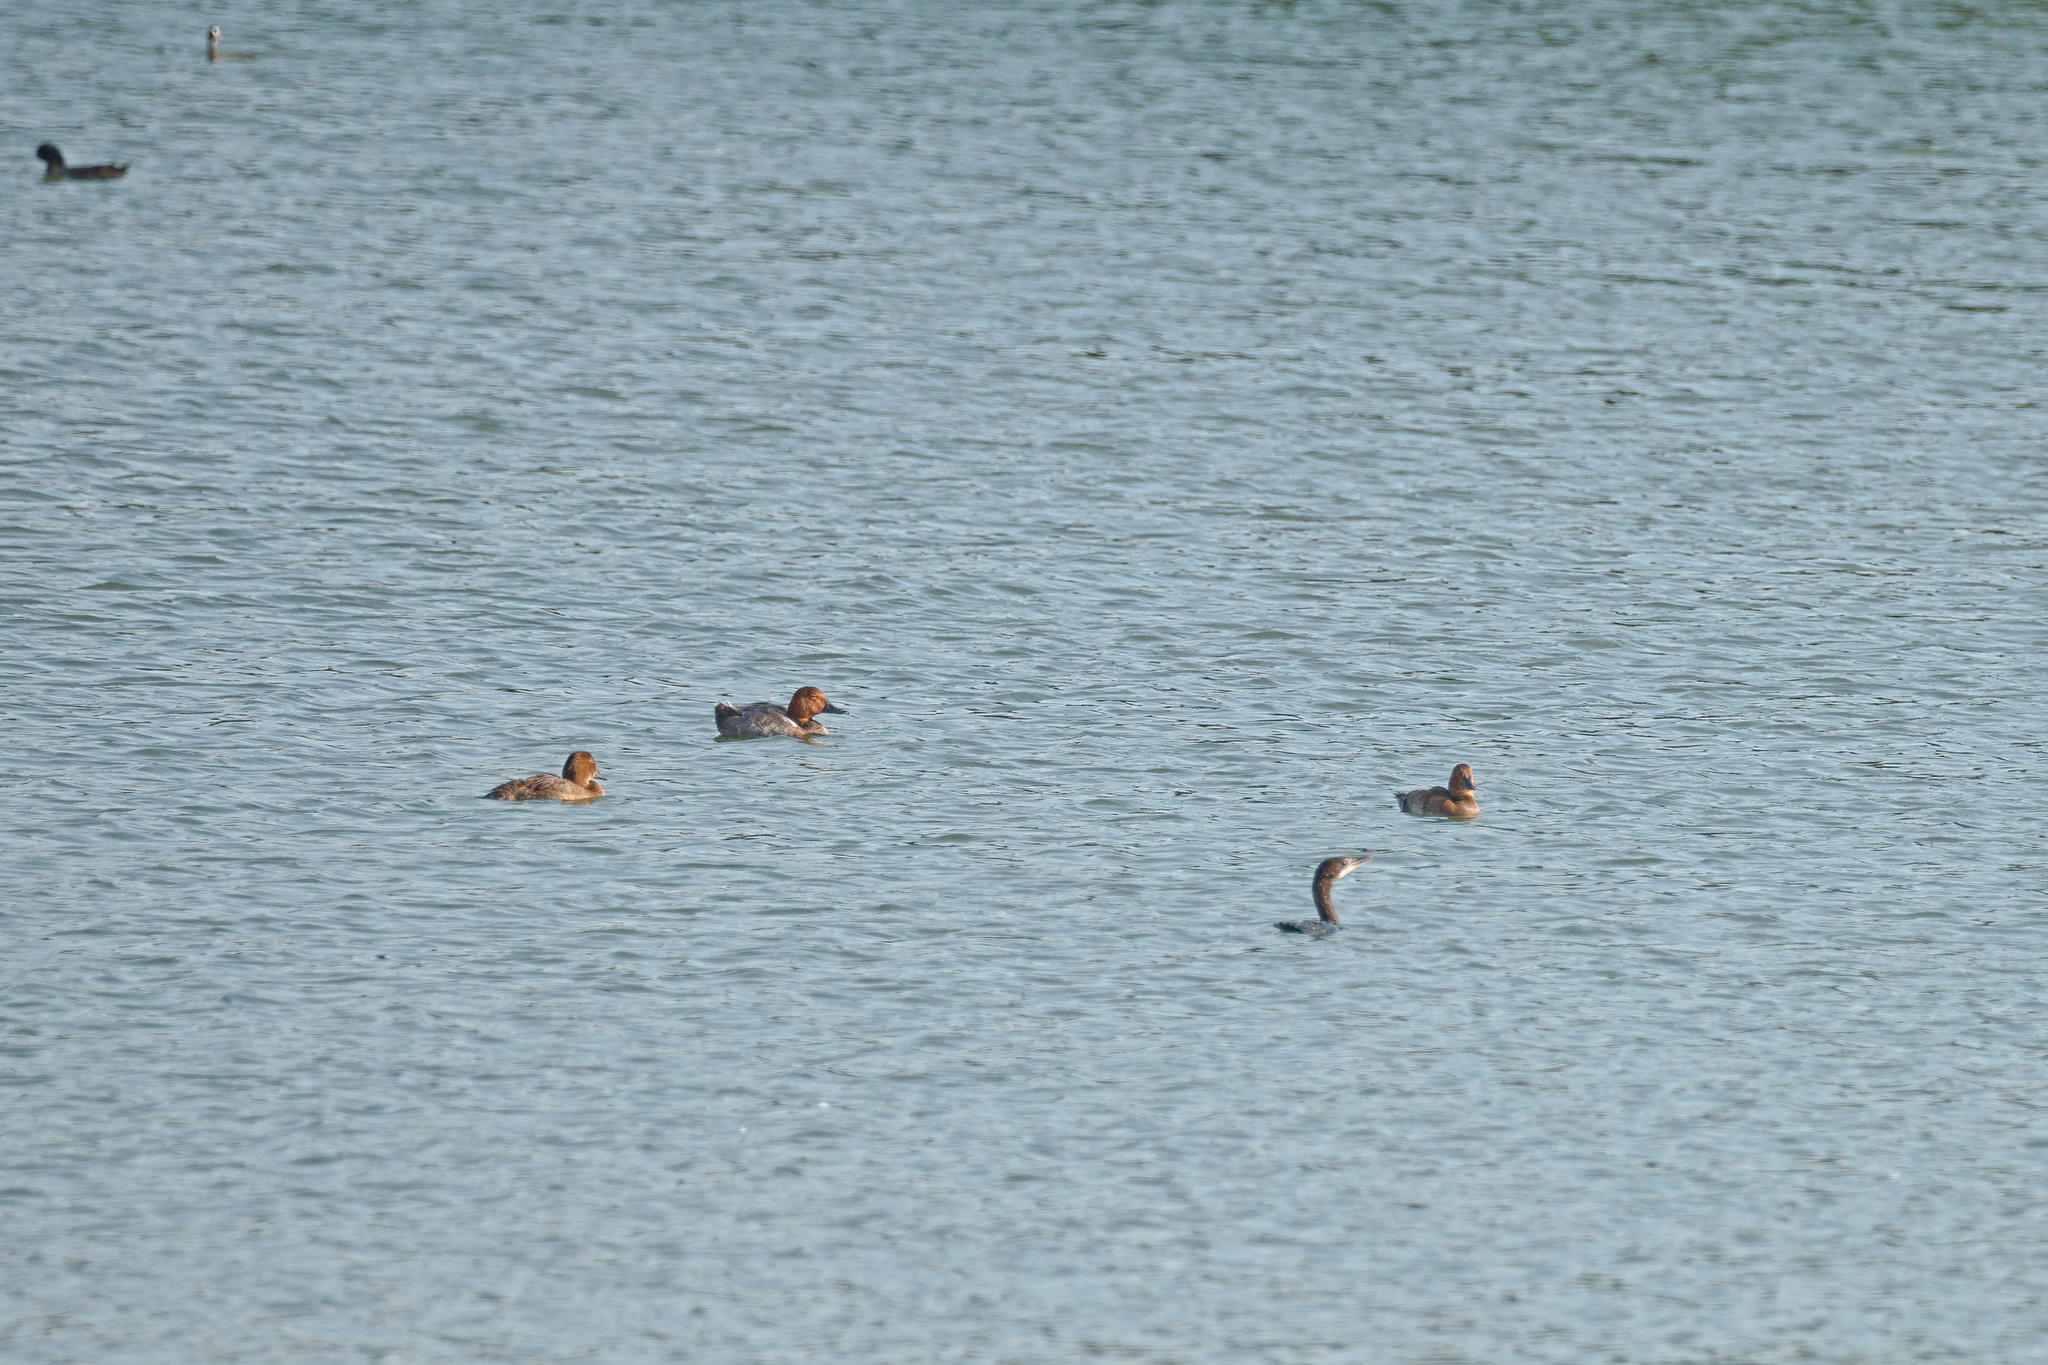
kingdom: Animalia
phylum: Chordata
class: Aves
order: Suliformes
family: Phalacrocoracidae
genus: Microcarbo
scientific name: Microcarbo pygmaeus
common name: Pygmy cormorant
